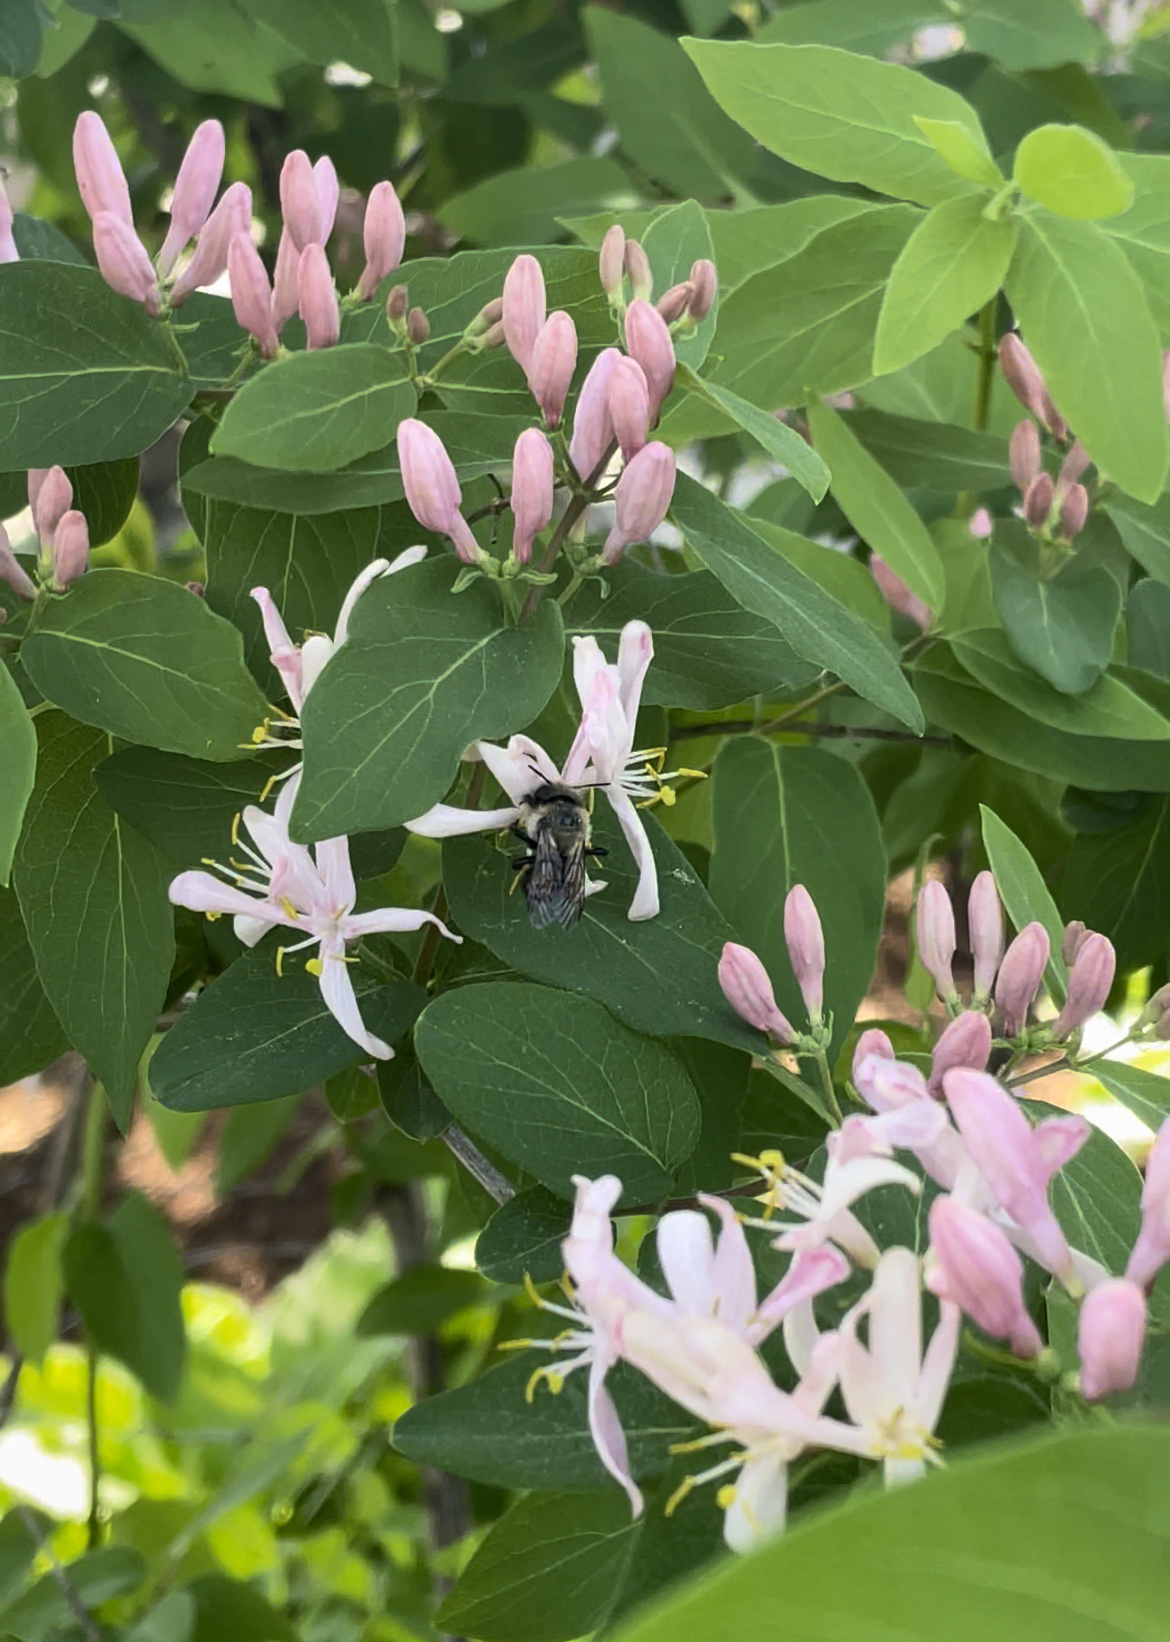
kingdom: Animalia
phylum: Arthropoda
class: Insecta
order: Hymenoptera
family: Megachilidae
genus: Osmia
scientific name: Osmia bucephala
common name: Bufflehead mason bee
